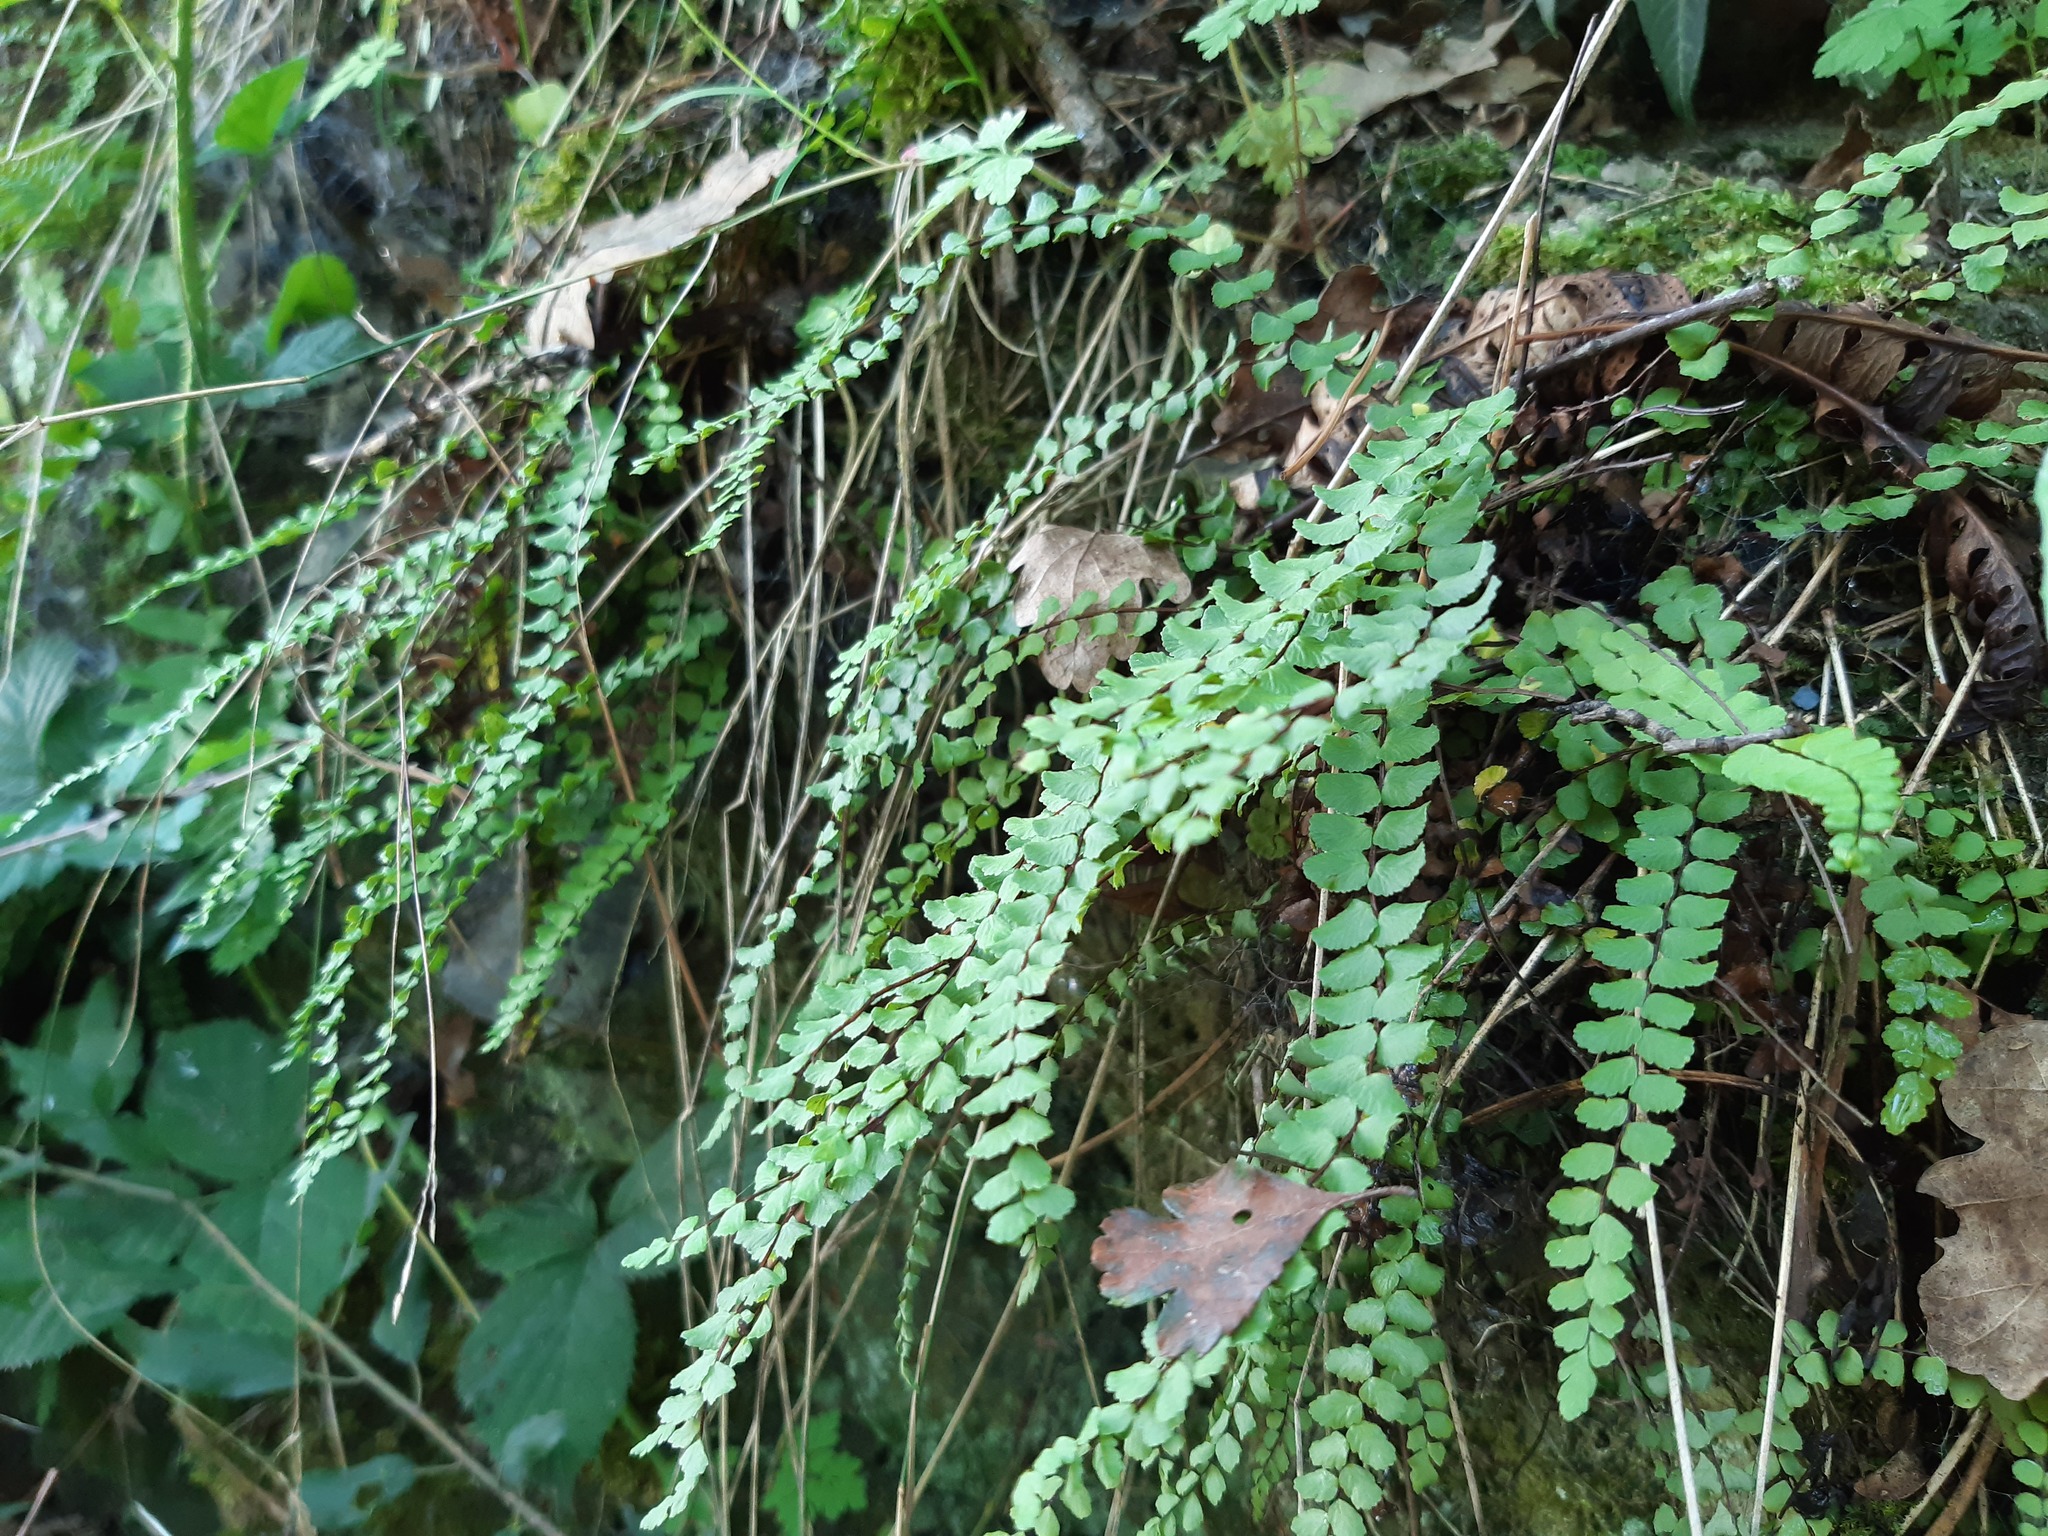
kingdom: Plantae
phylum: Tracheophyta
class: Polypodiopsida
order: Polypodiales
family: Aspleniaceae
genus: Asplenium
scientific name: Asplenium trichomanes
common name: Maidenhair spleenwort
